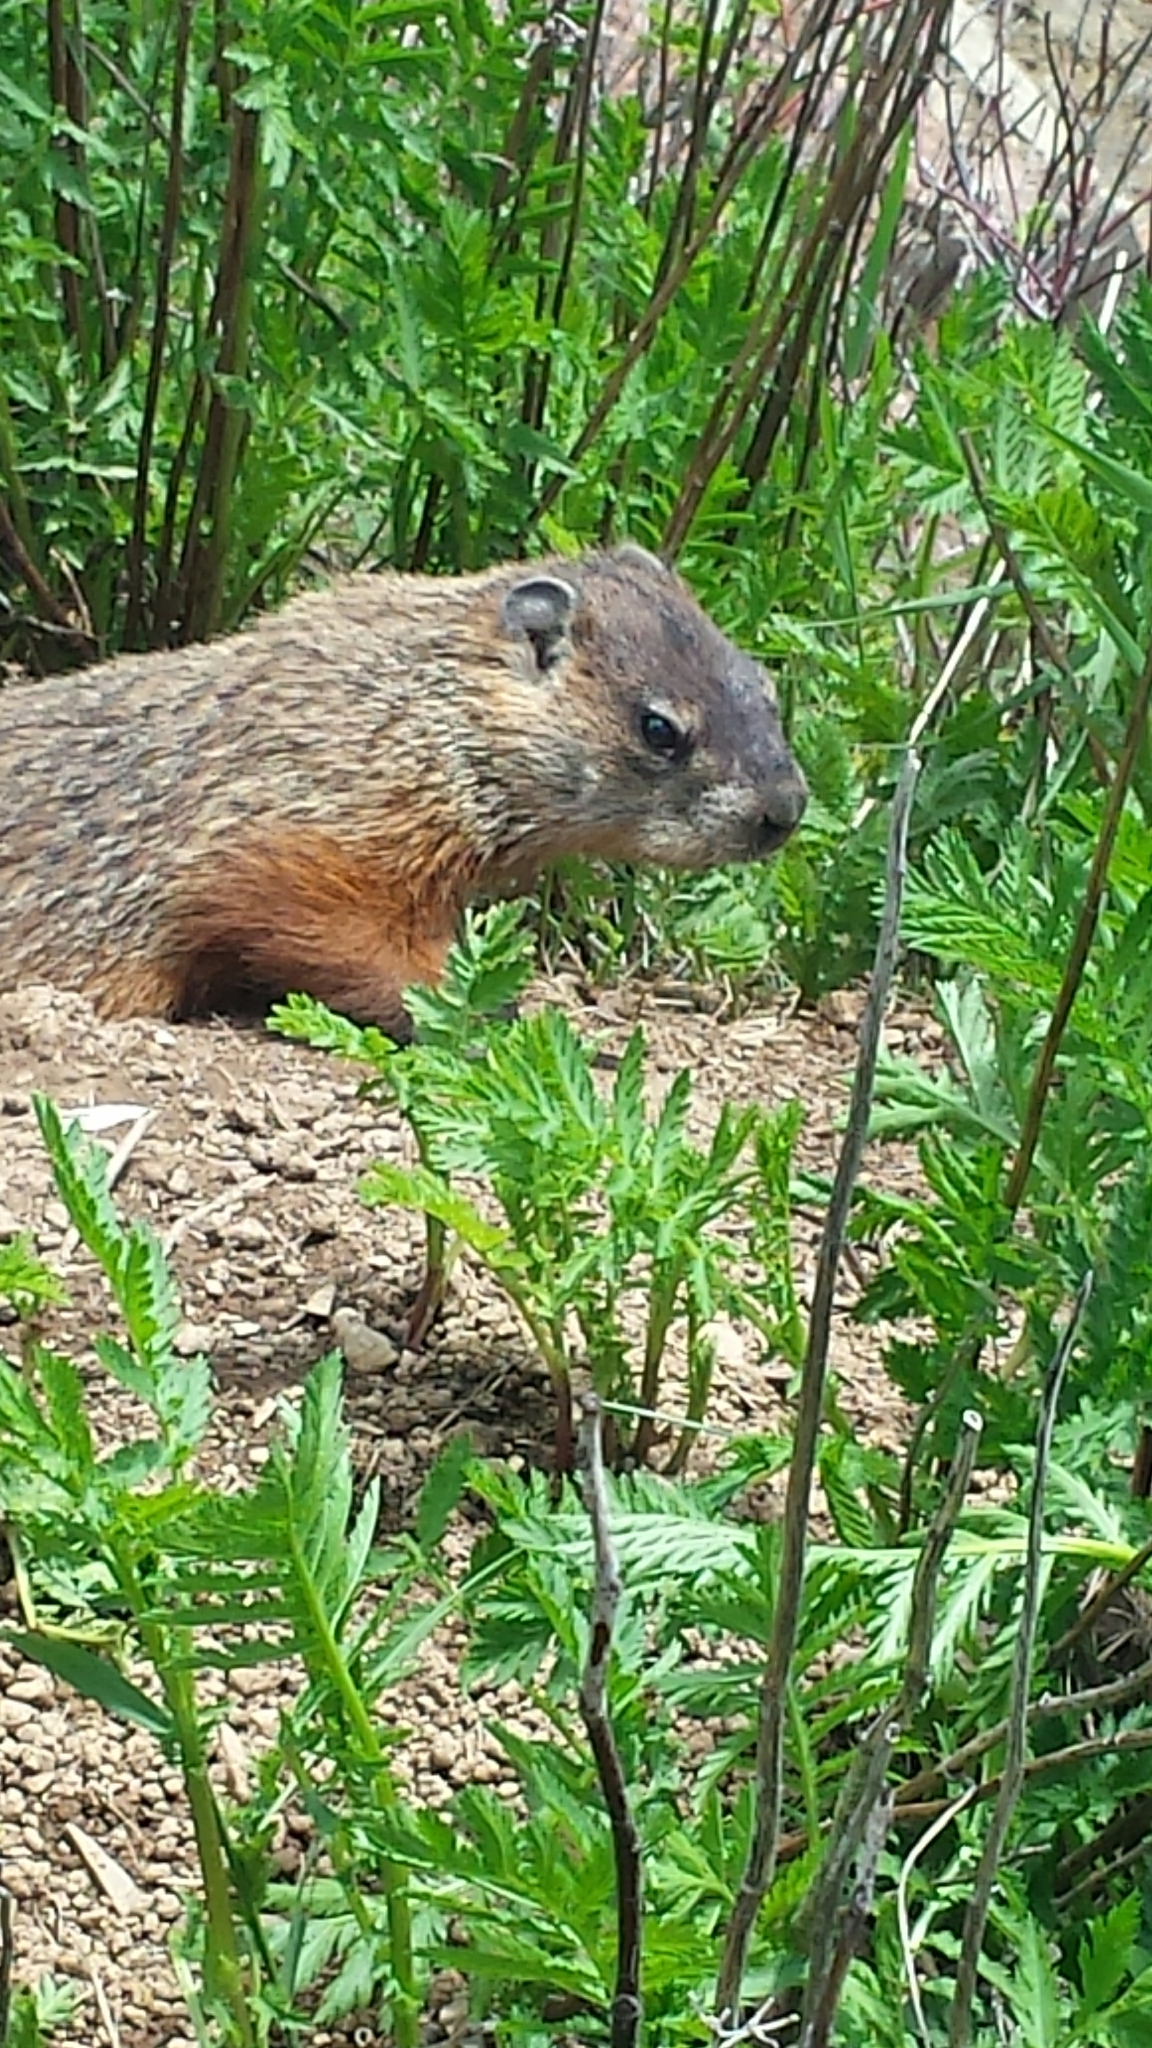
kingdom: Animalia
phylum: Chordata
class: Mammalia
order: Rodentia
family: Sciuridae
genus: Marmota
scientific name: Marmota monax
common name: Groundhog
